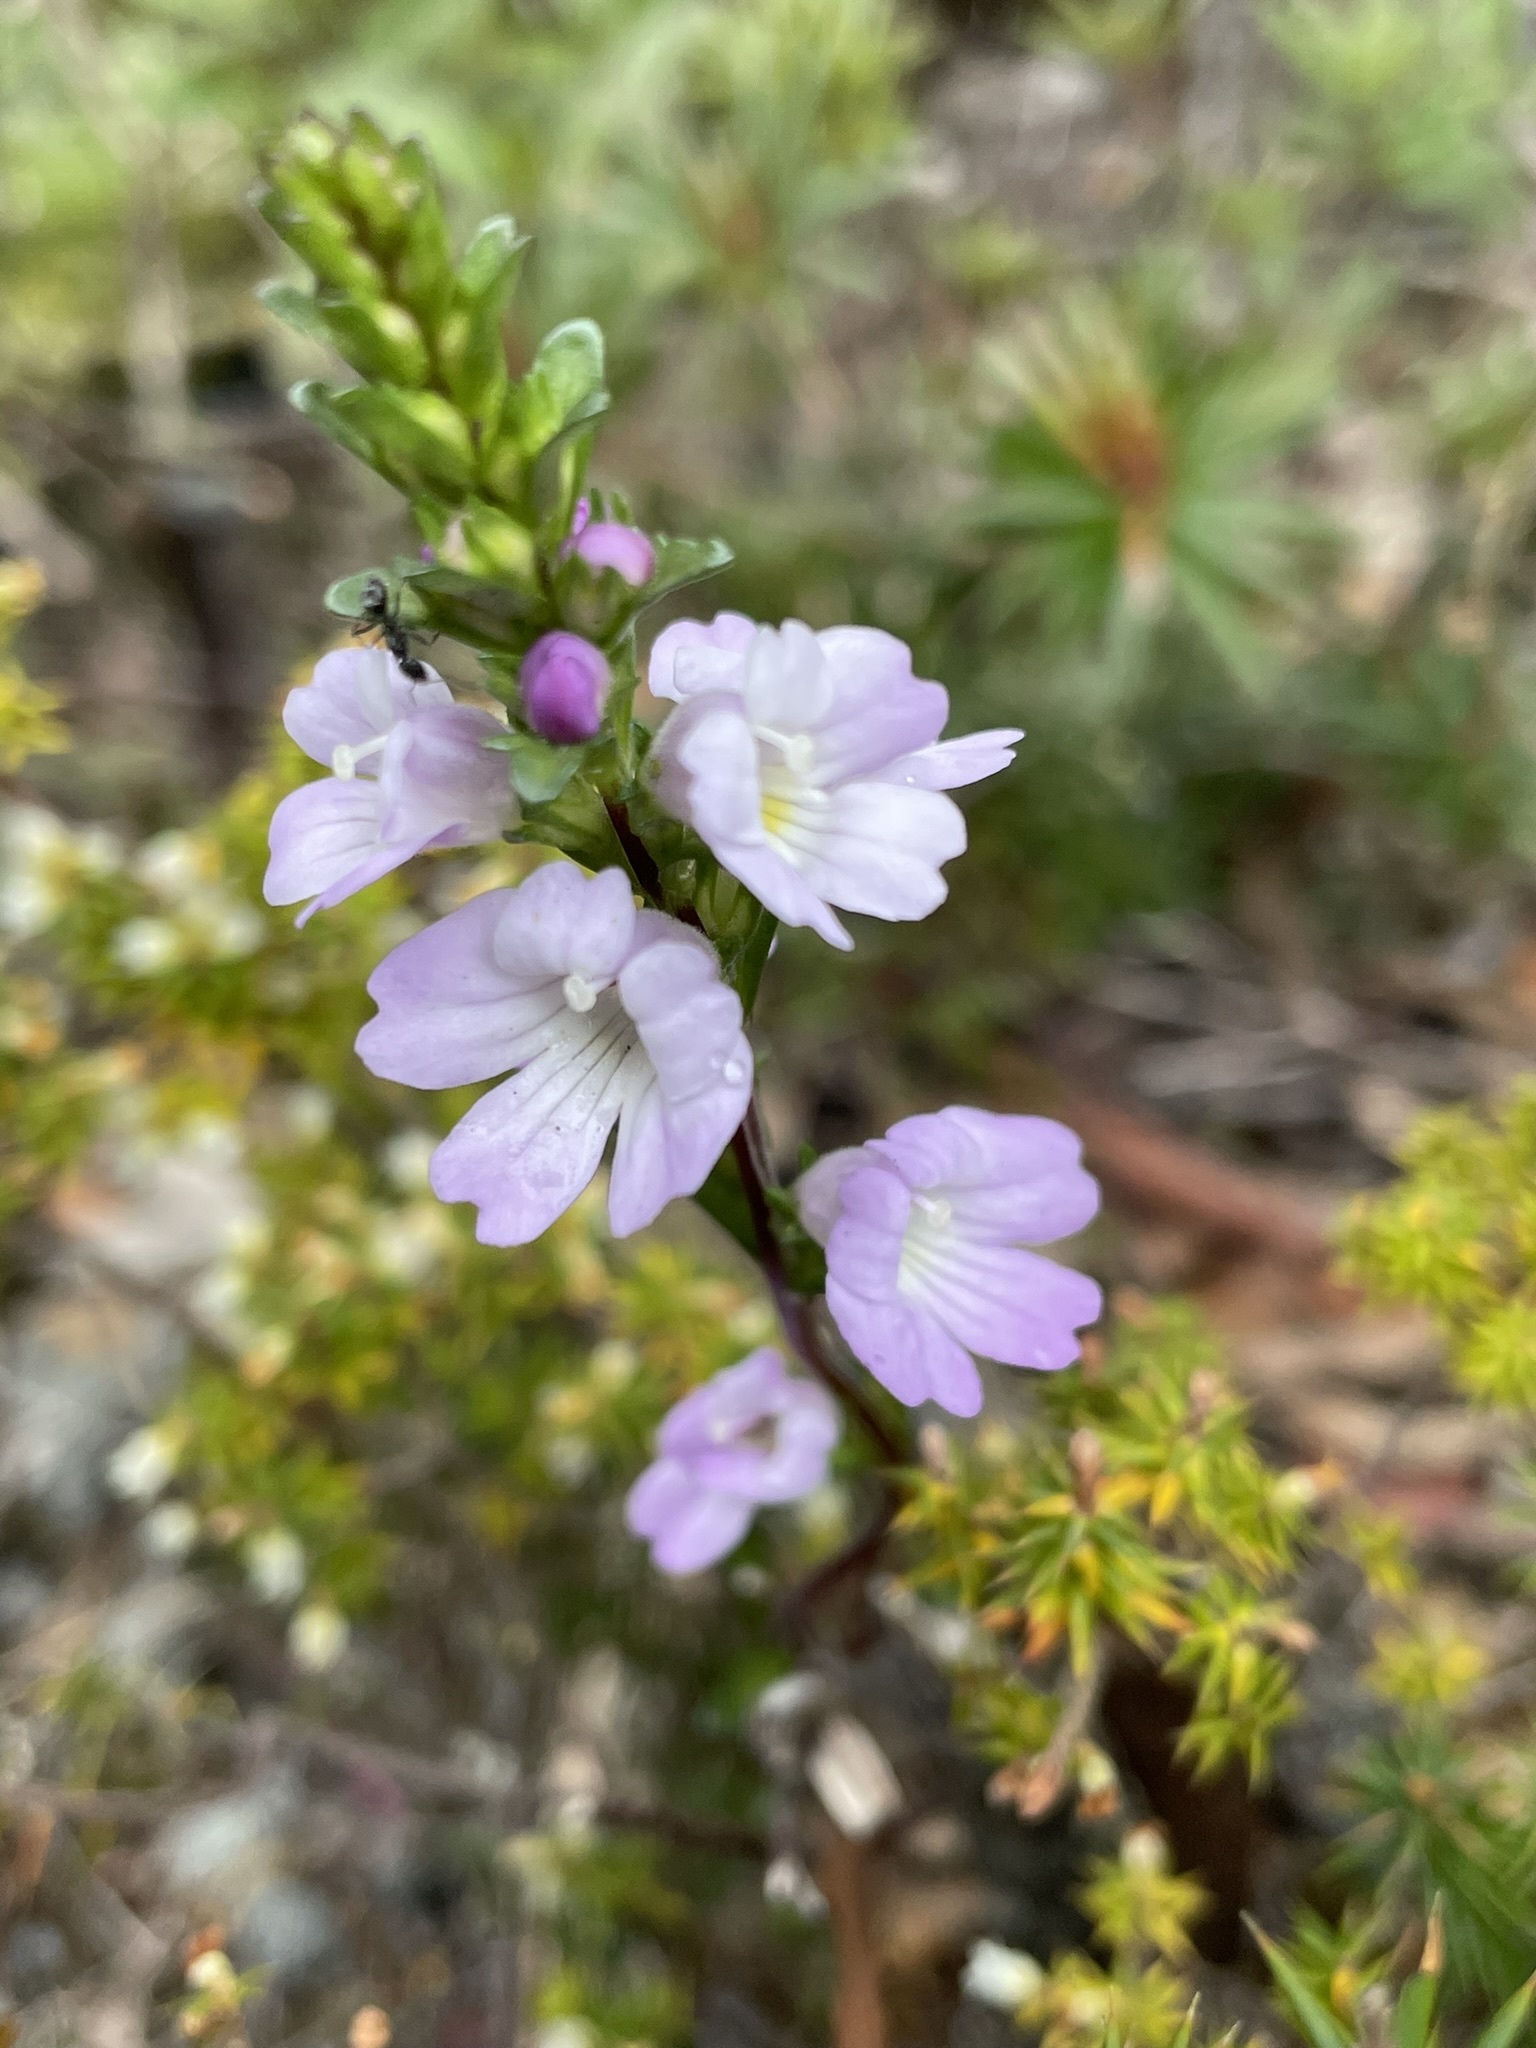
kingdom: Plantae
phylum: Tracheophyta
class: Magnoliopsida
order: Lamiales
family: Orobanchaceae
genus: Euphrasia
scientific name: Euphrasia collina
